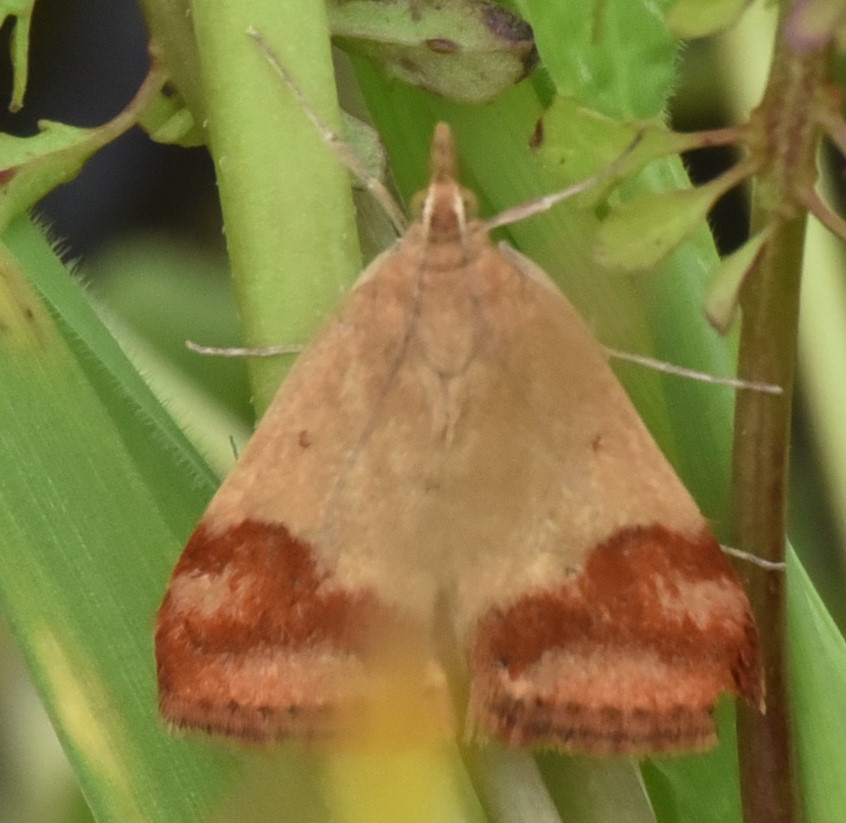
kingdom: Animalia
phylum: Arthropoda
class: Insecta
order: Lepidoptera
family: Crambidae
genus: Pyrausta
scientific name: Pyrausta semirubralis
